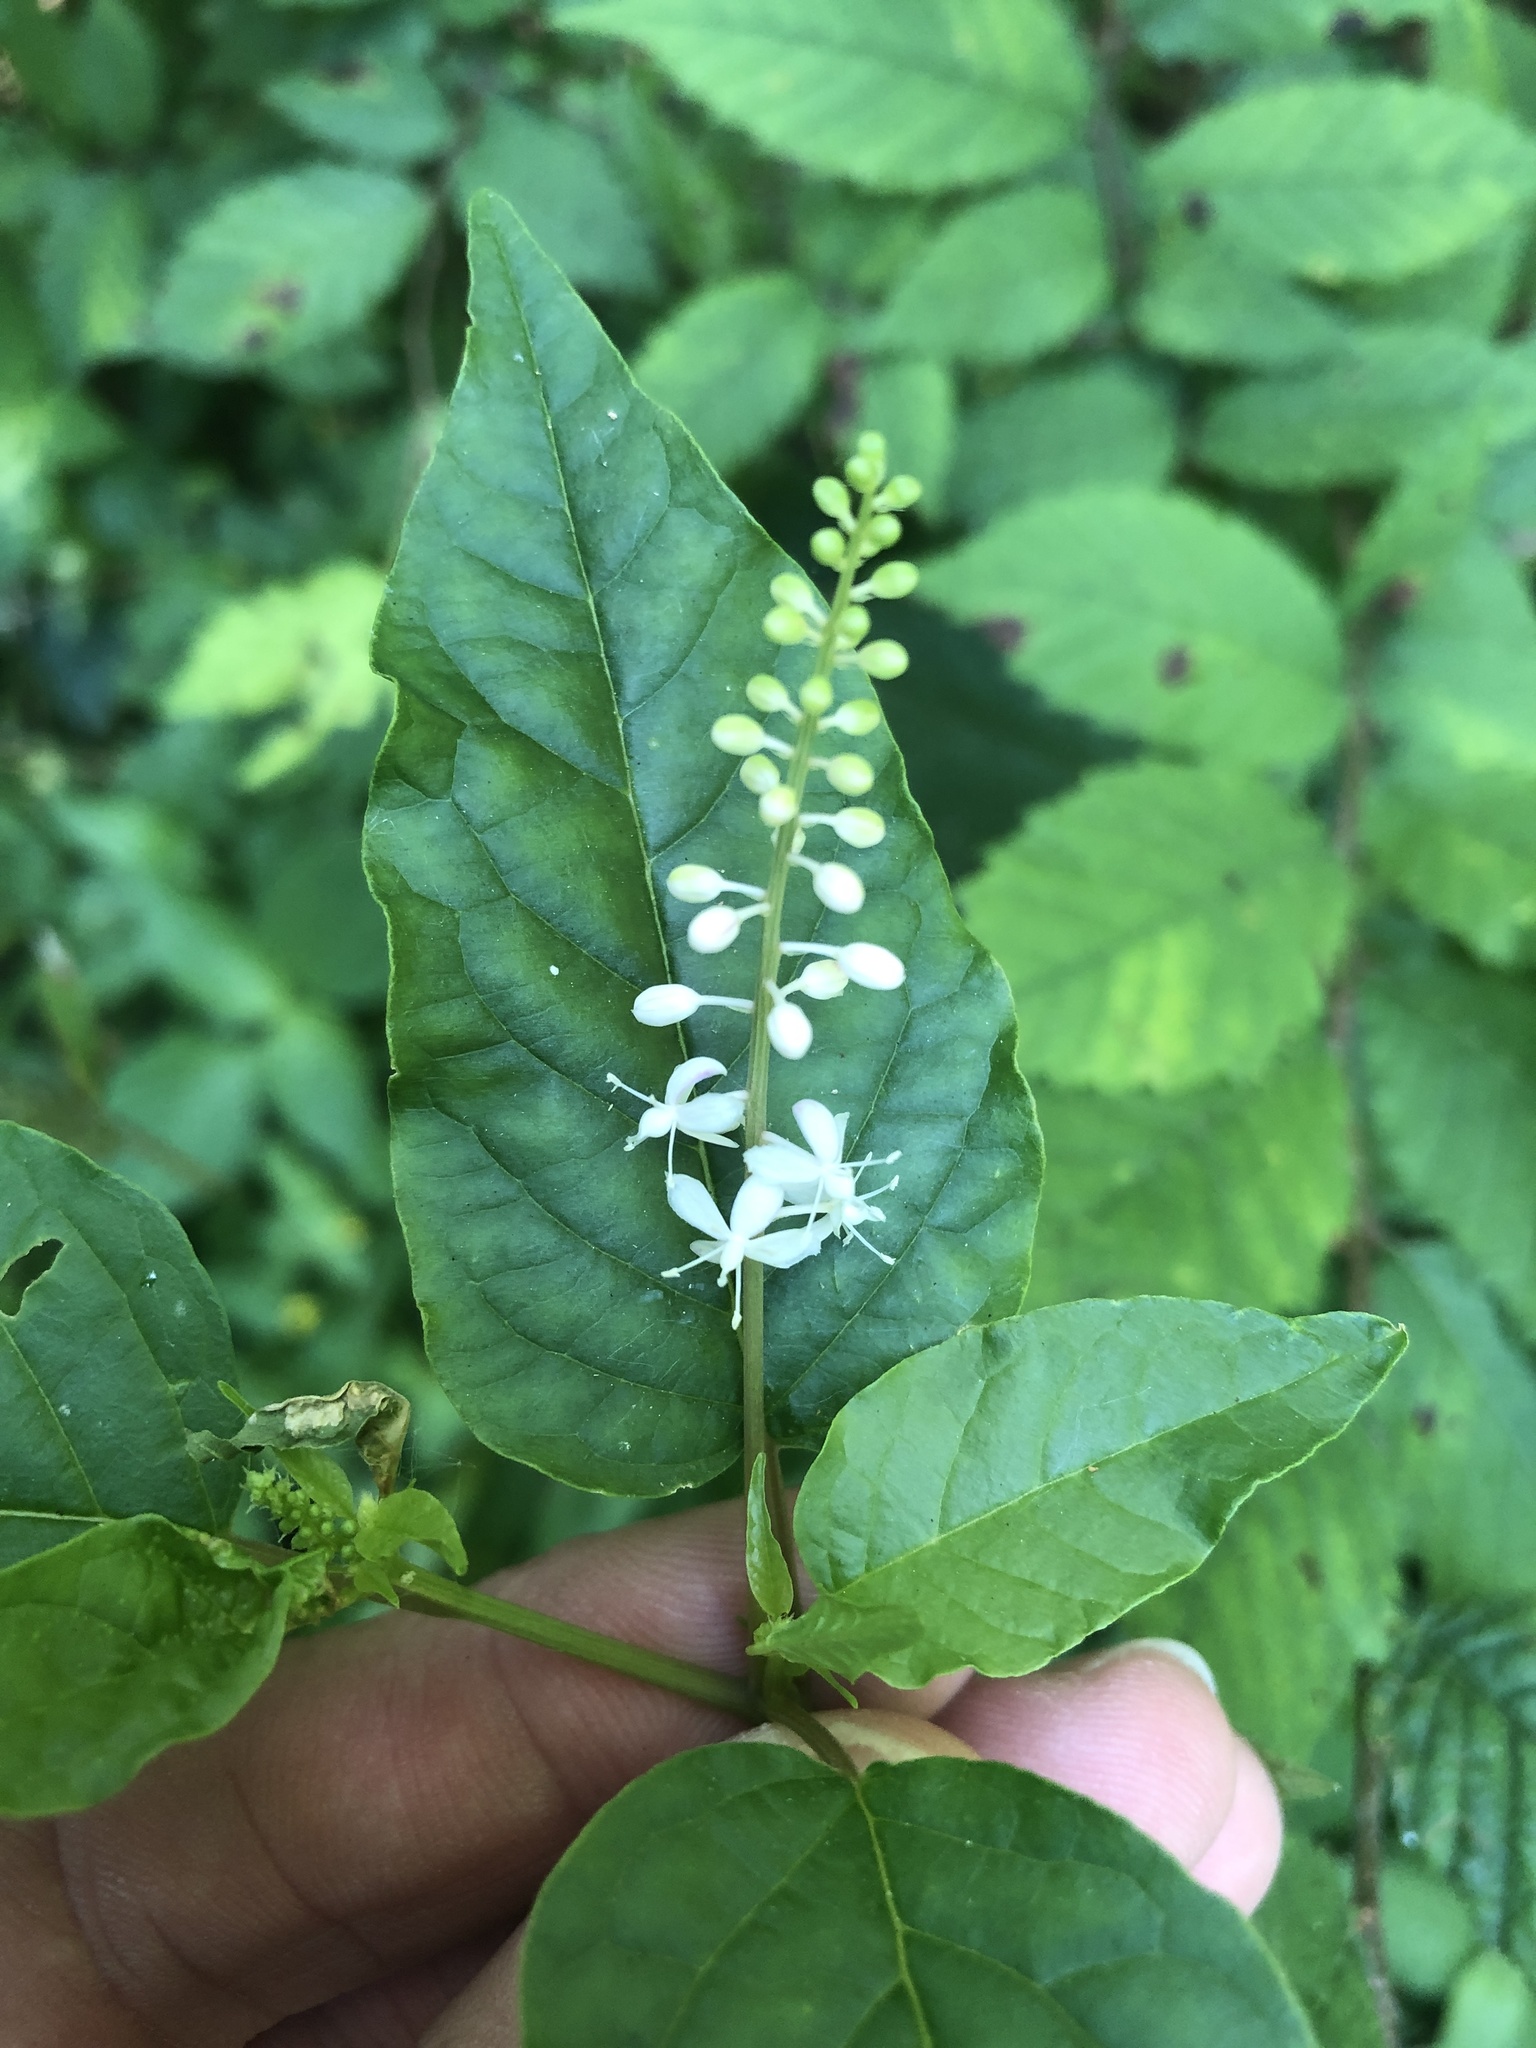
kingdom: Plantae
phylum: Tracheophyta
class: Magnoliopsida
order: Caryophyllales
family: Phytolaccaceae
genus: Rivina
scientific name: Rivina humilis
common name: Rougeplant
